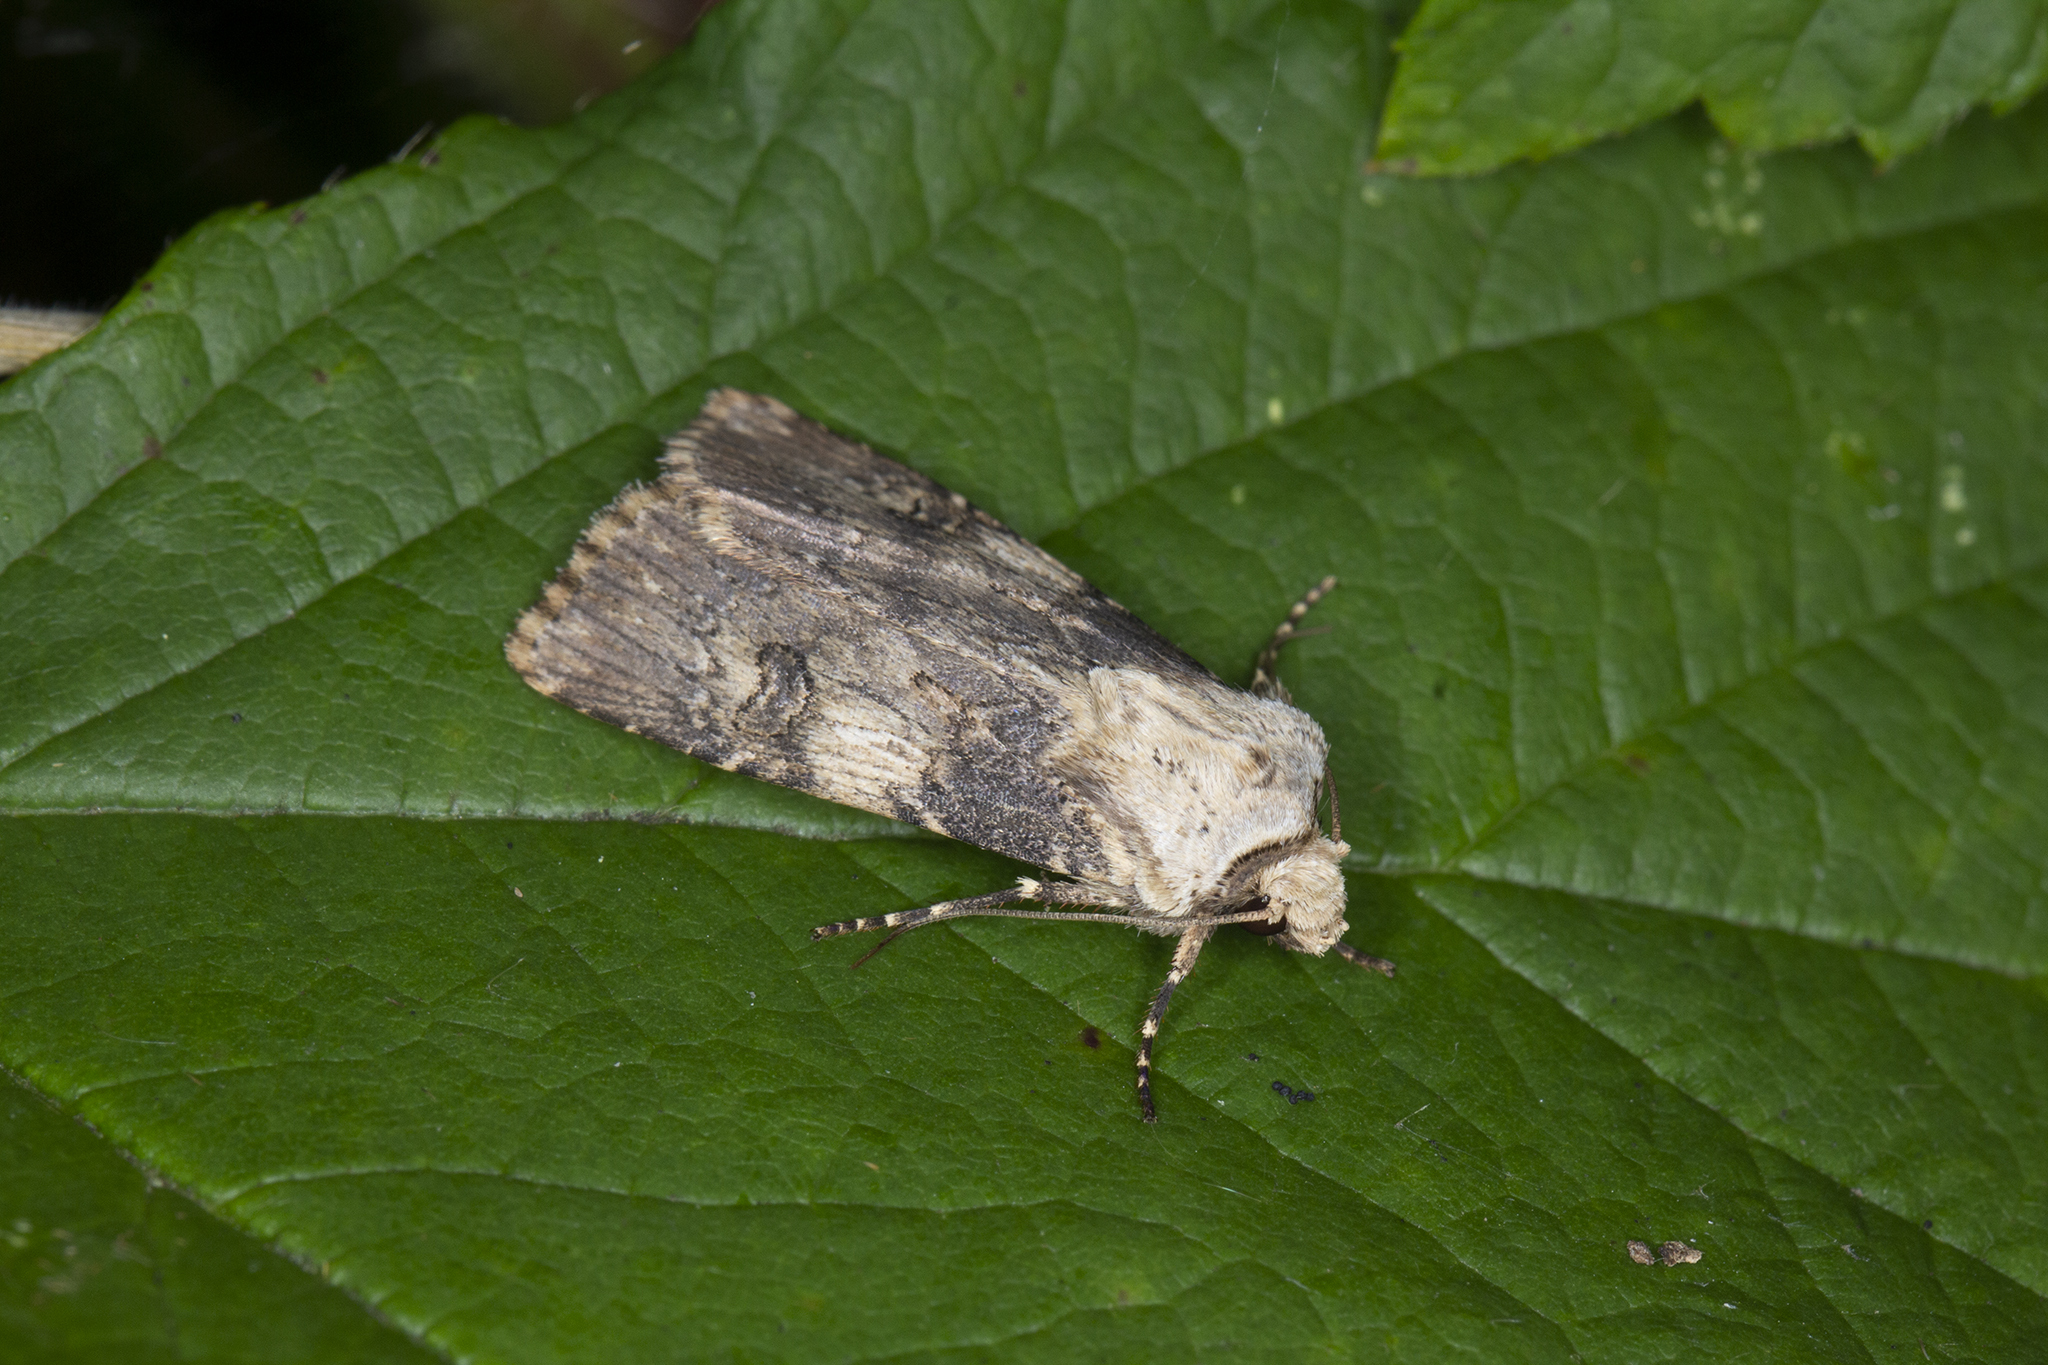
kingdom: Animalia
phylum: Arthropoda
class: Insecta
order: Lepidoptera
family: Noctuidae
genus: Agrotis
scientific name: Agrotis puta
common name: Shuttle-shaped dart
